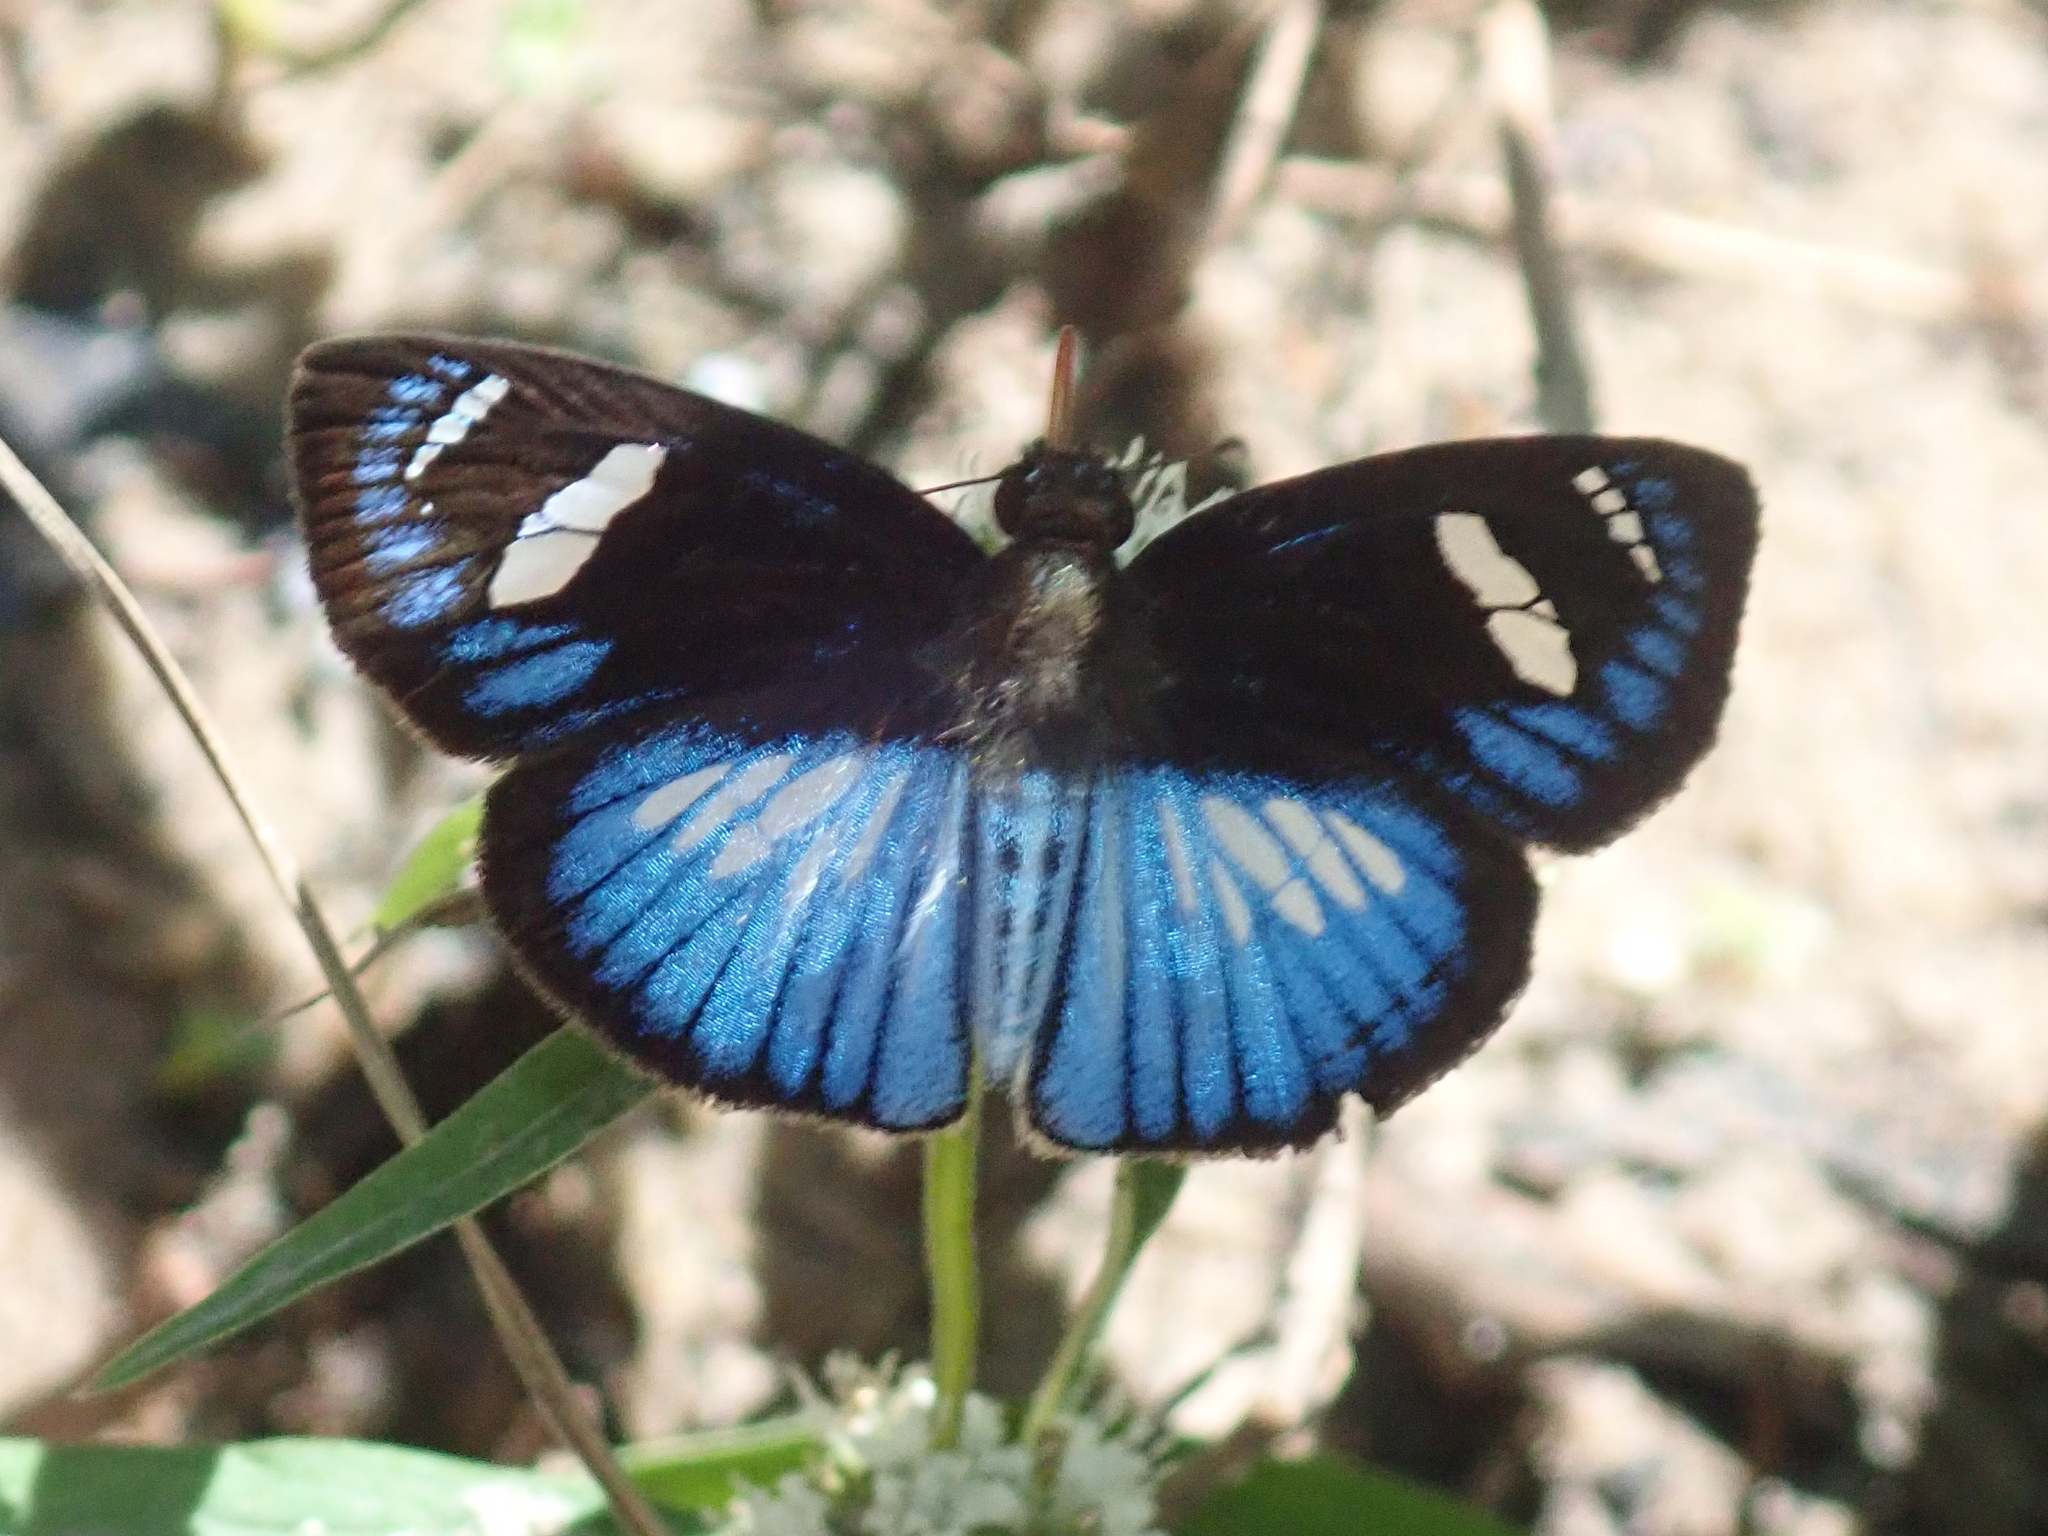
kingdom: Animalia
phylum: Arthropoda
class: Insecta
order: Lepidoptera
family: Hesperiidae
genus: Pythonides
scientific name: Pythonides jovianus
